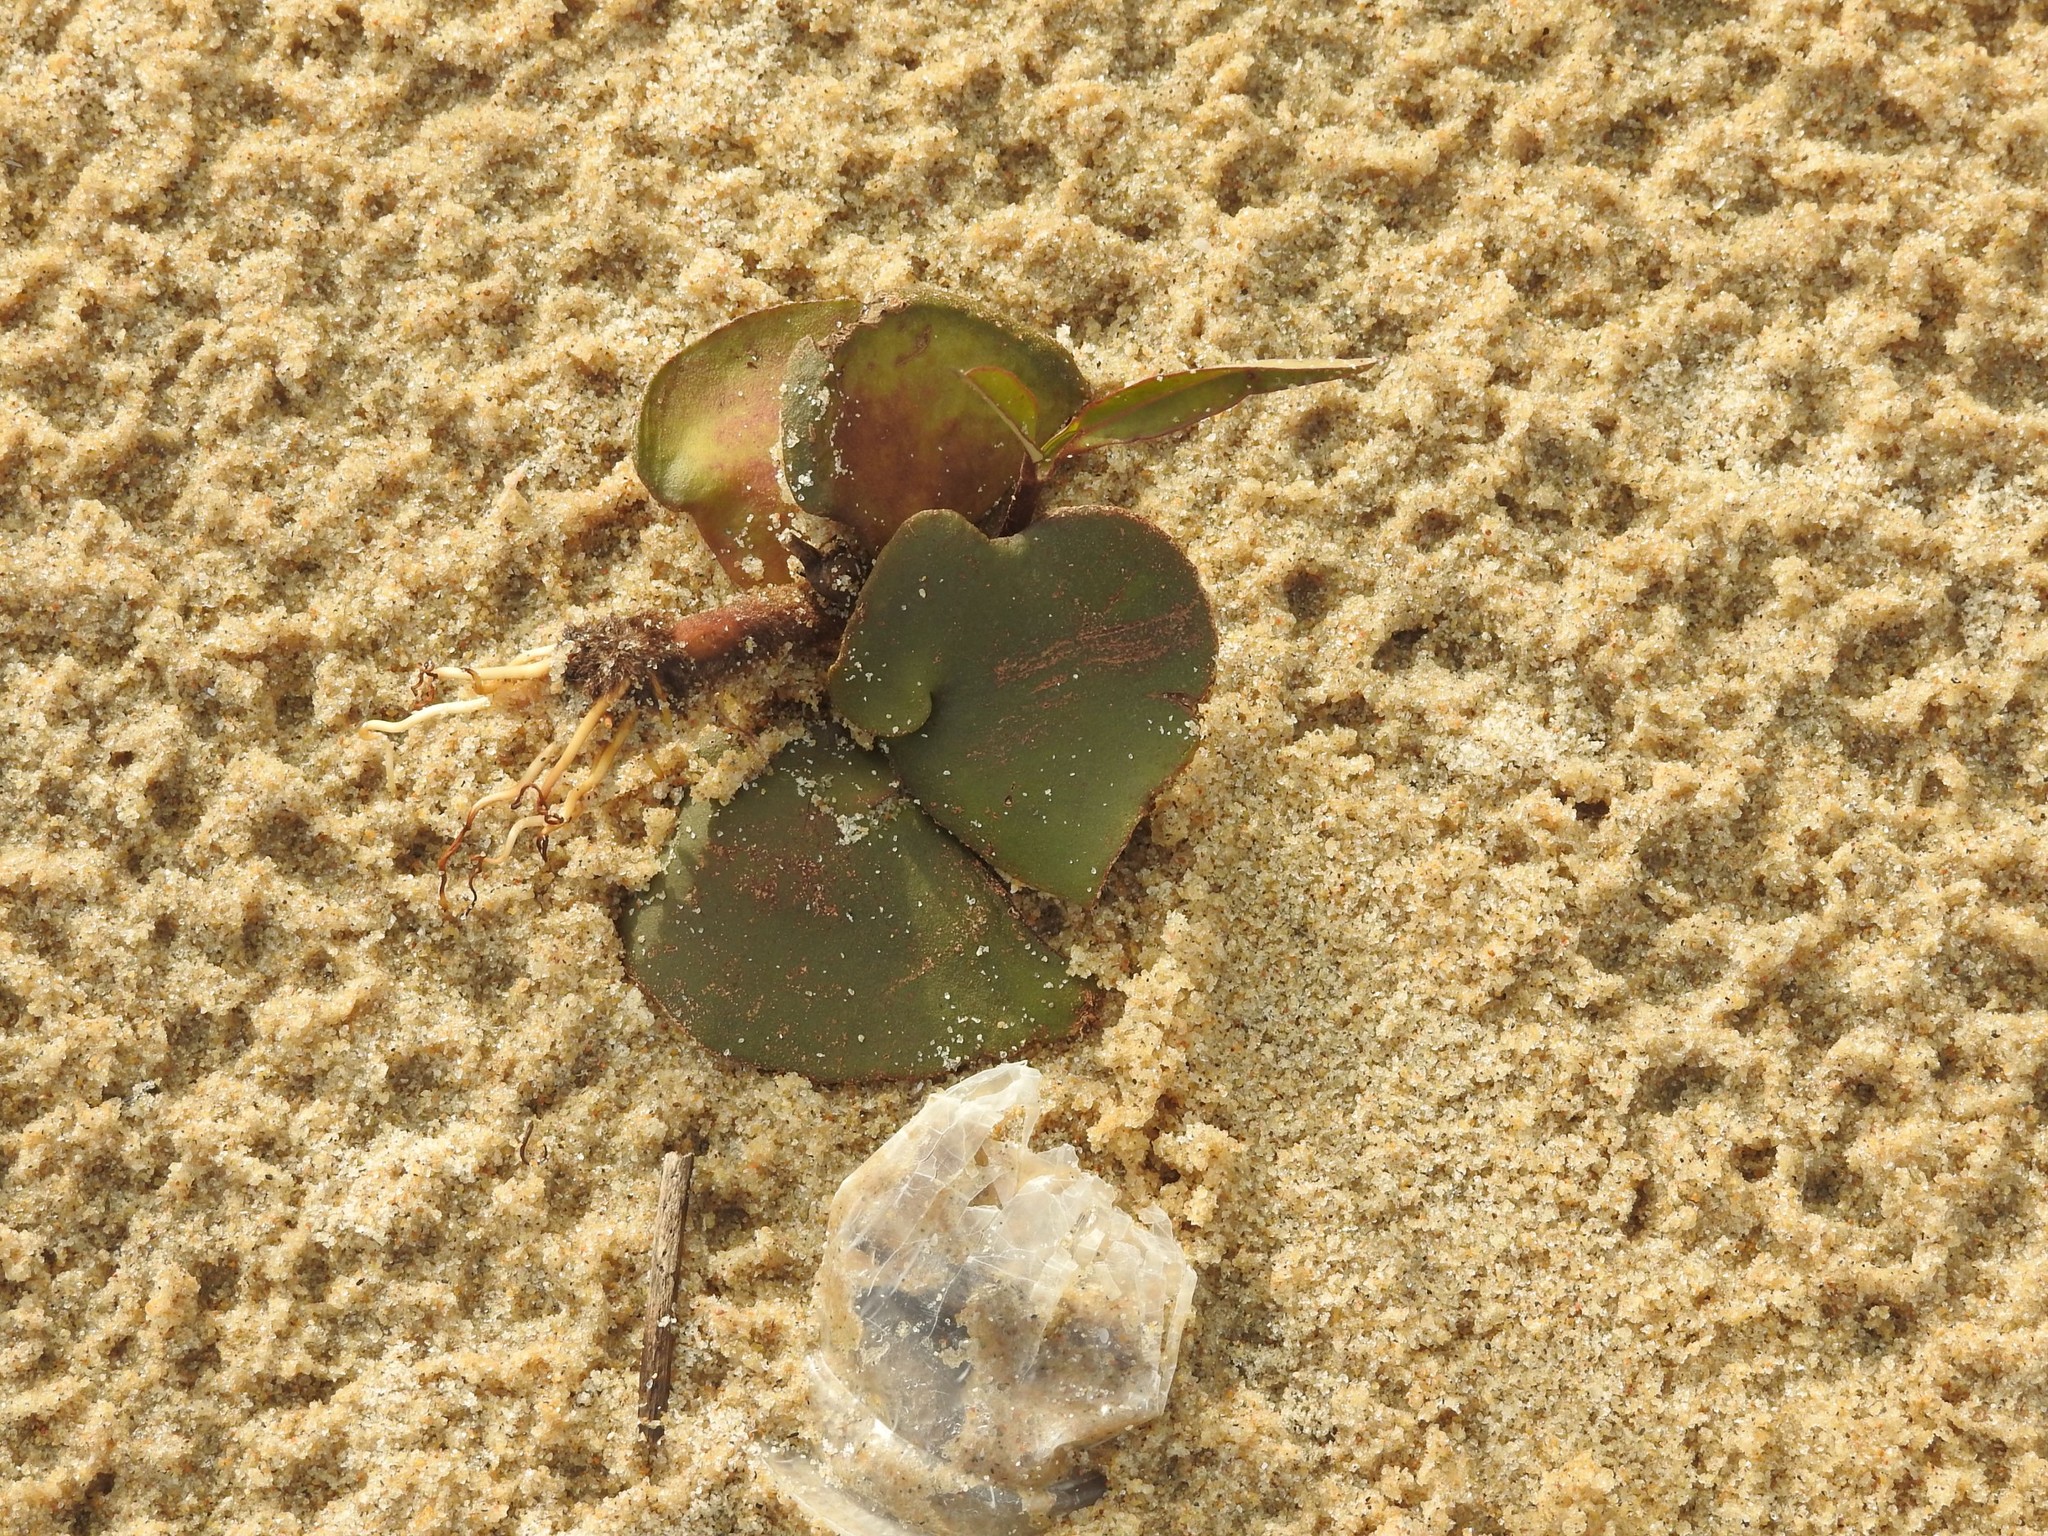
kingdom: Plantae
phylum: Tracheophyta
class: Magnoliopsida
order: Lamiales
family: Acanthaceae
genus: Avicennia
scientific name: Avicennia officinalis
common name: Baen
